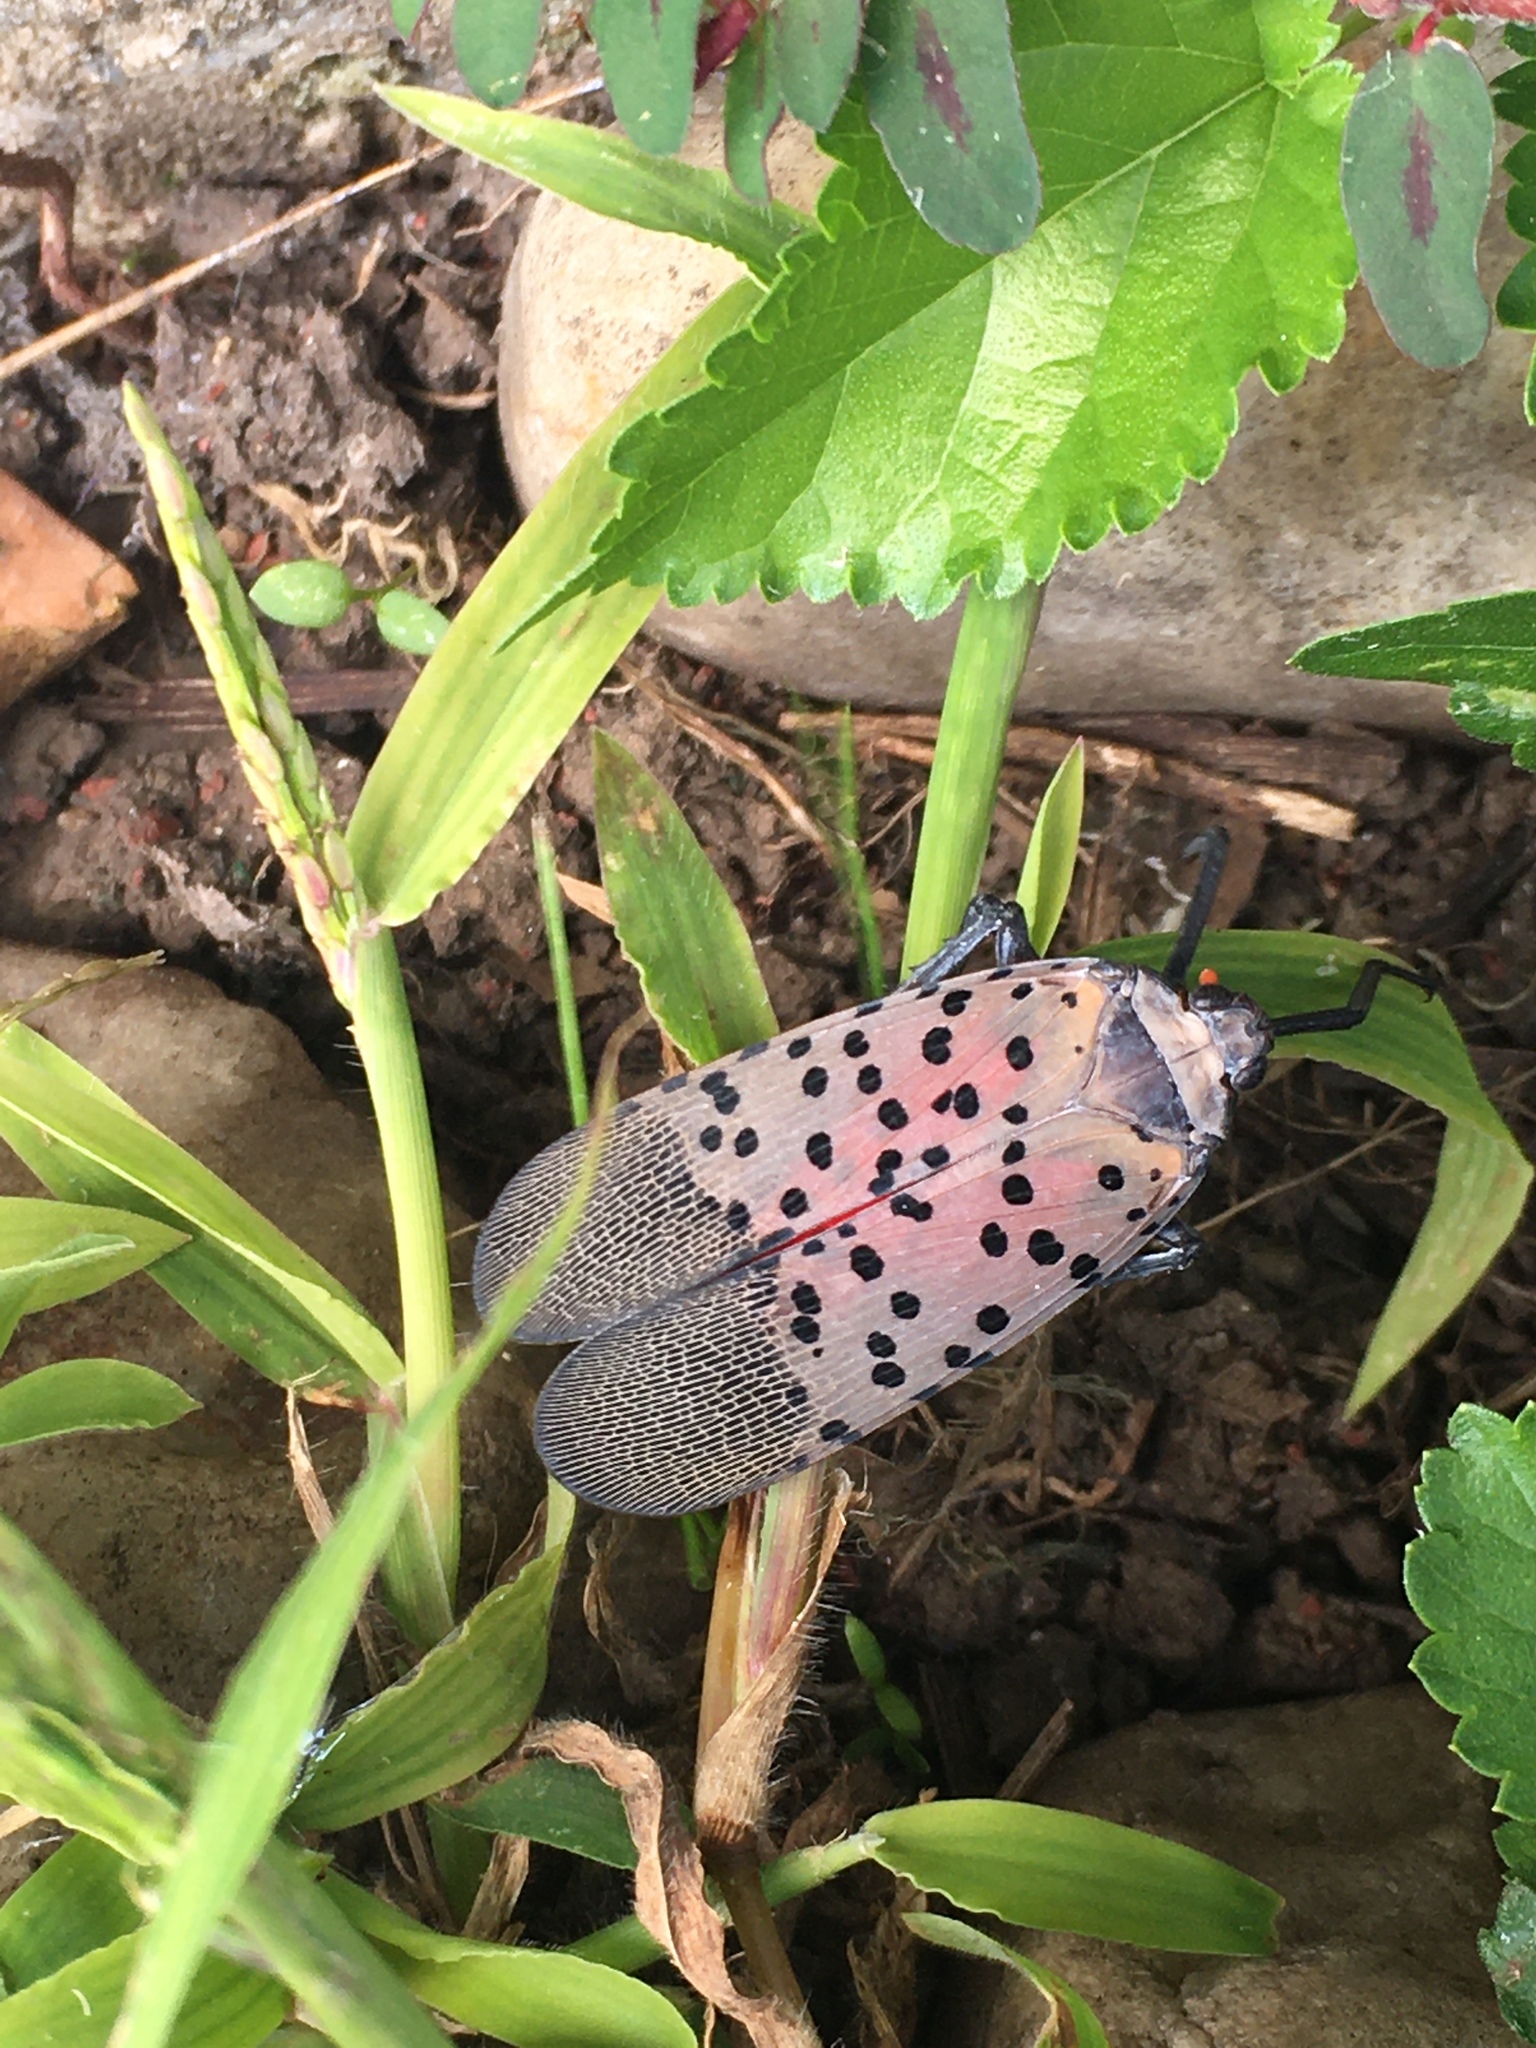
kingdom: Animalia
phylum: Arthropoda
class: Insecta
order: Hemiptera
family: Fulgoridae
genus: Lycorma
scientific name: Lycorma delicatula
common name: Spotted lanternfly
